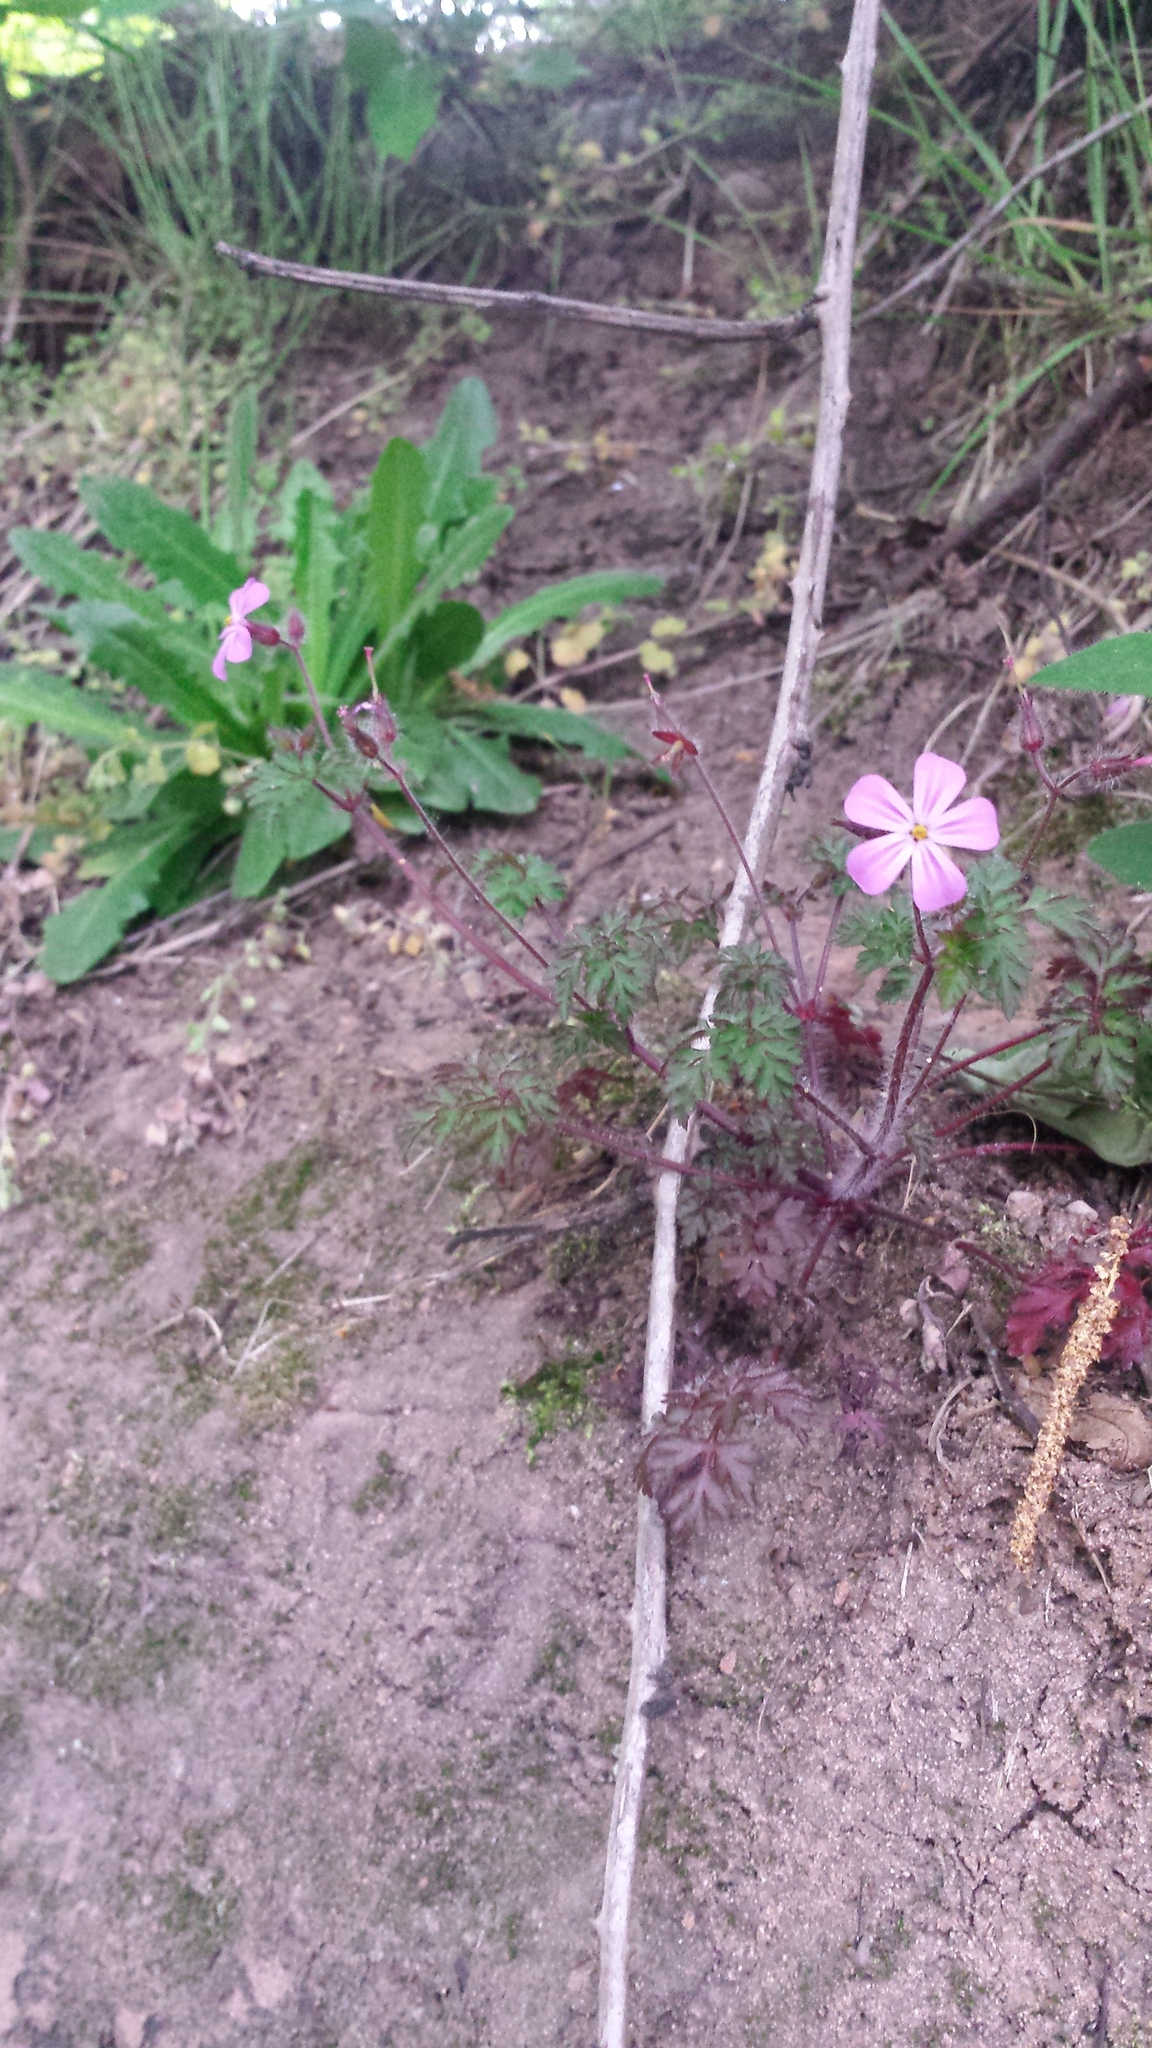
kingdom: Plantae
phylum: Tracheophyta
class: Magnoliopsida
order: Geraniales
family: Geraniaceae
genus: Geranium
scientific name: Geranium robertianum
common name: Herb-robert
